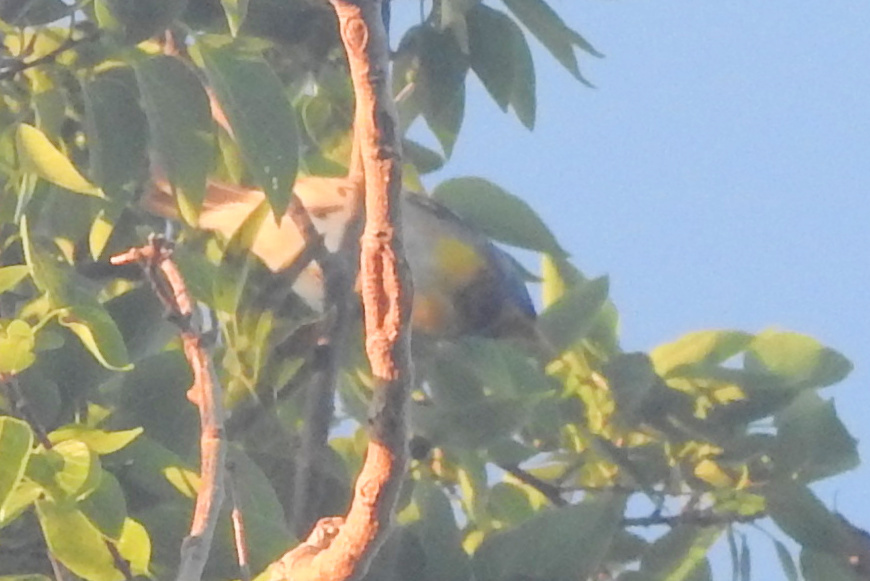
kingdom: Animalia
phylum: Chordata
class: Aves
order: Passeriformes
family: Parulidae
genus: Setophaga
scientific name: Setophaga americana
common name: Northern parula
